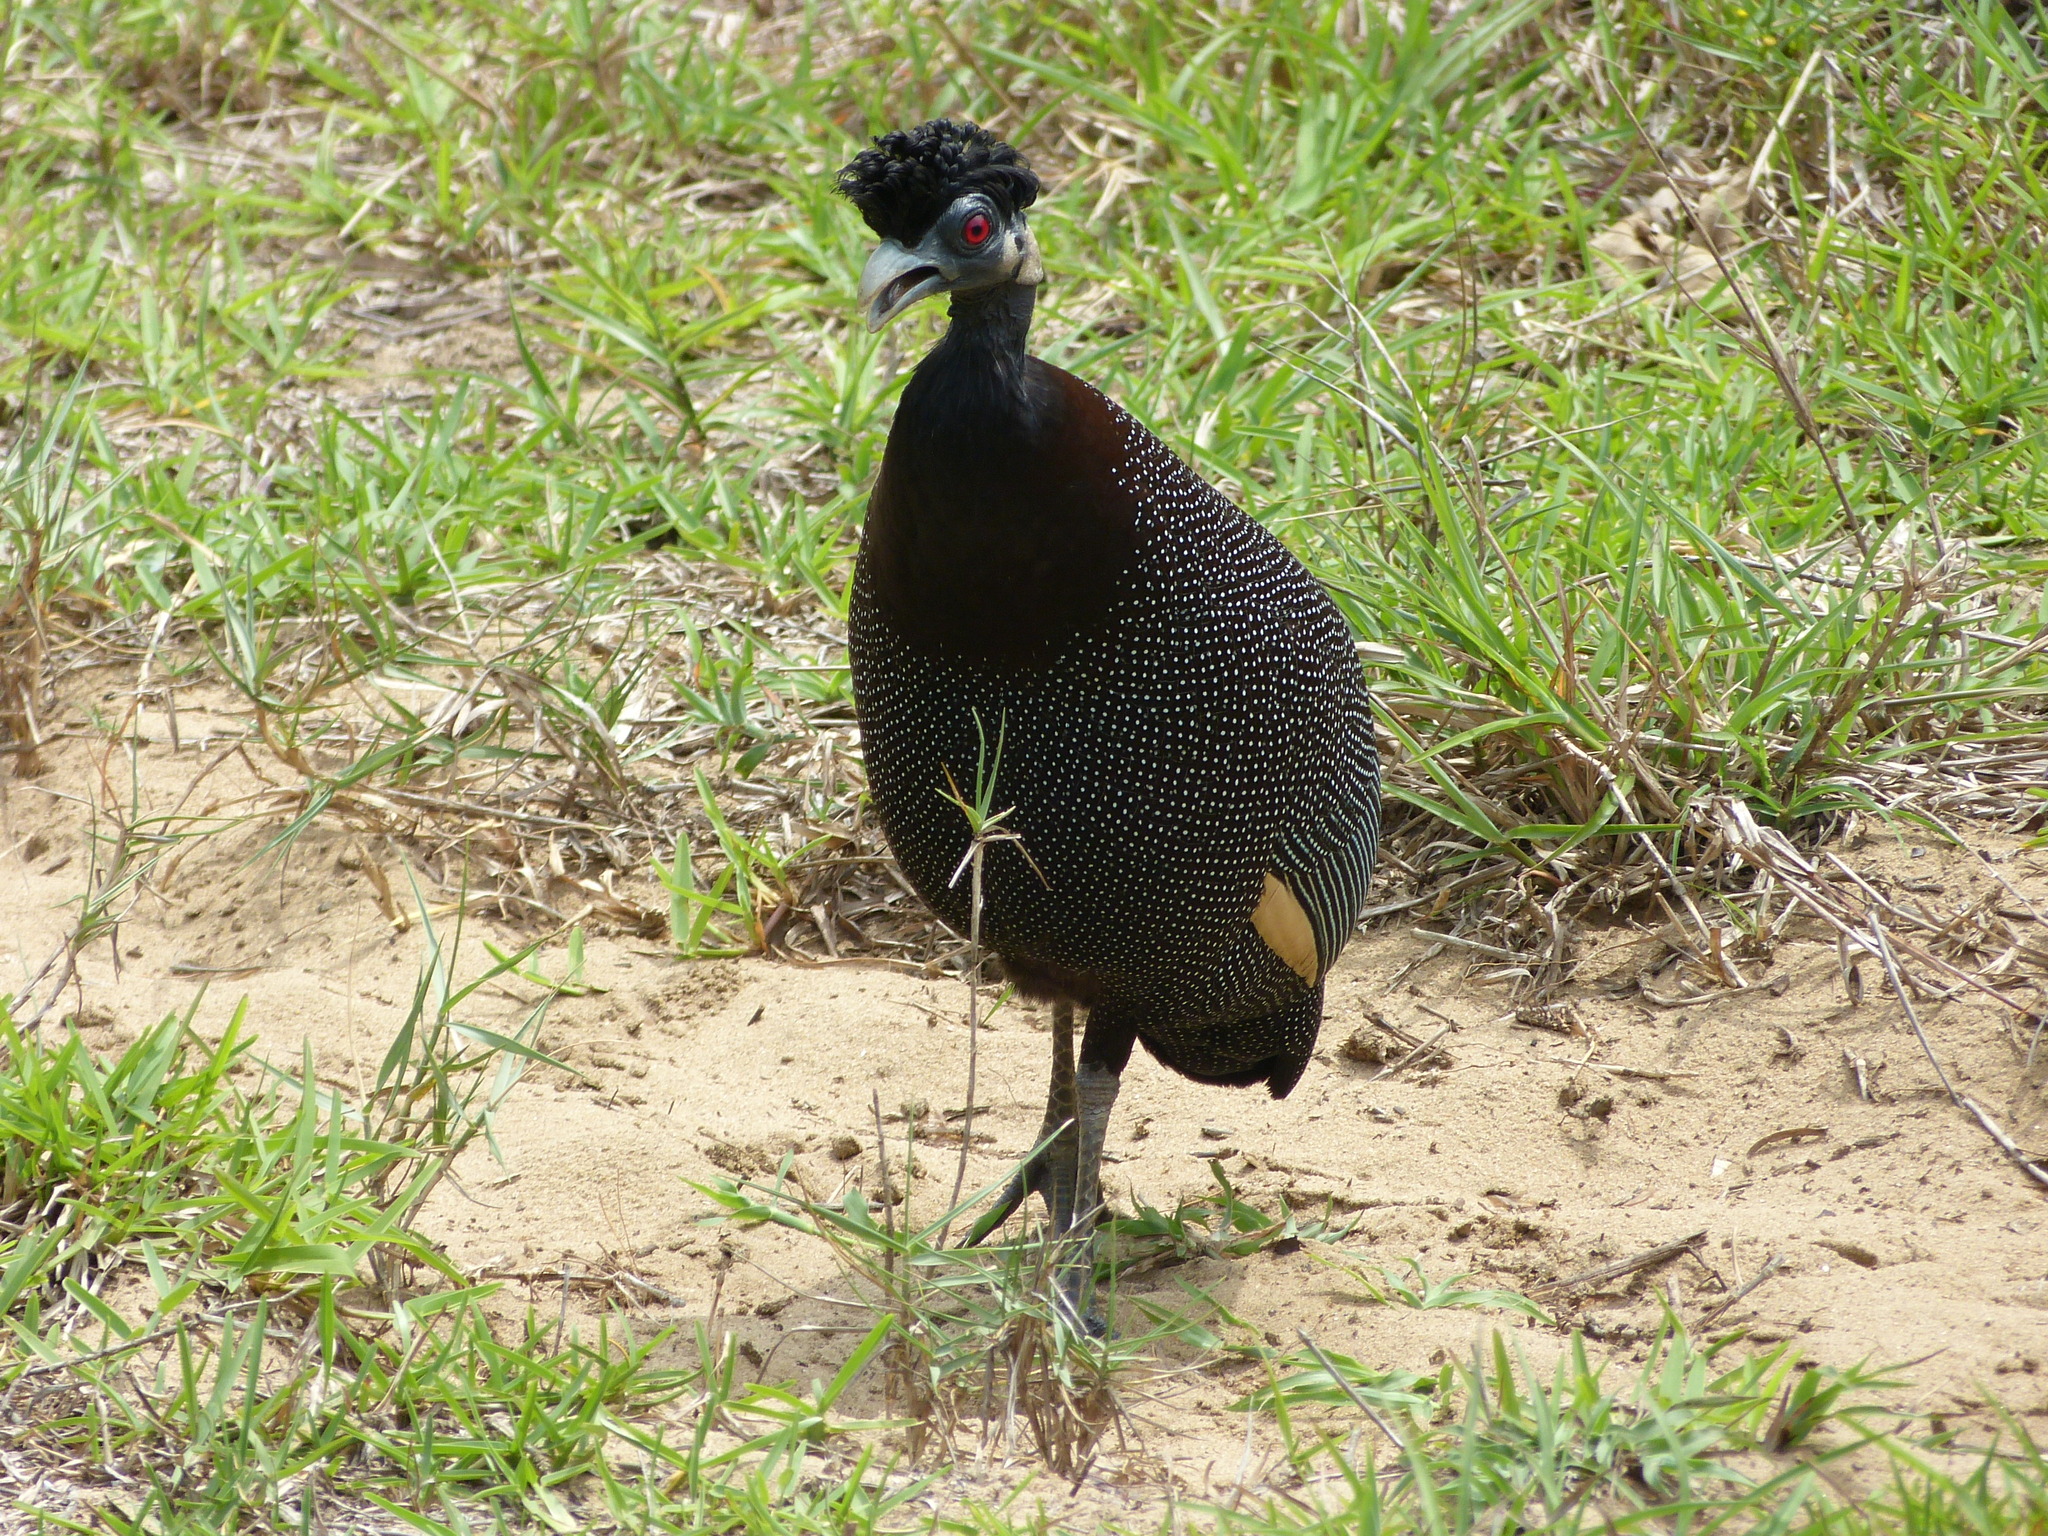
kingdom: Animalia
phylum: Chordata
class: Aves
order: Galliformes
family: Numididae
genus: Guttera
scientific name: Guttera pucherani
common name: Crested guineafowl
